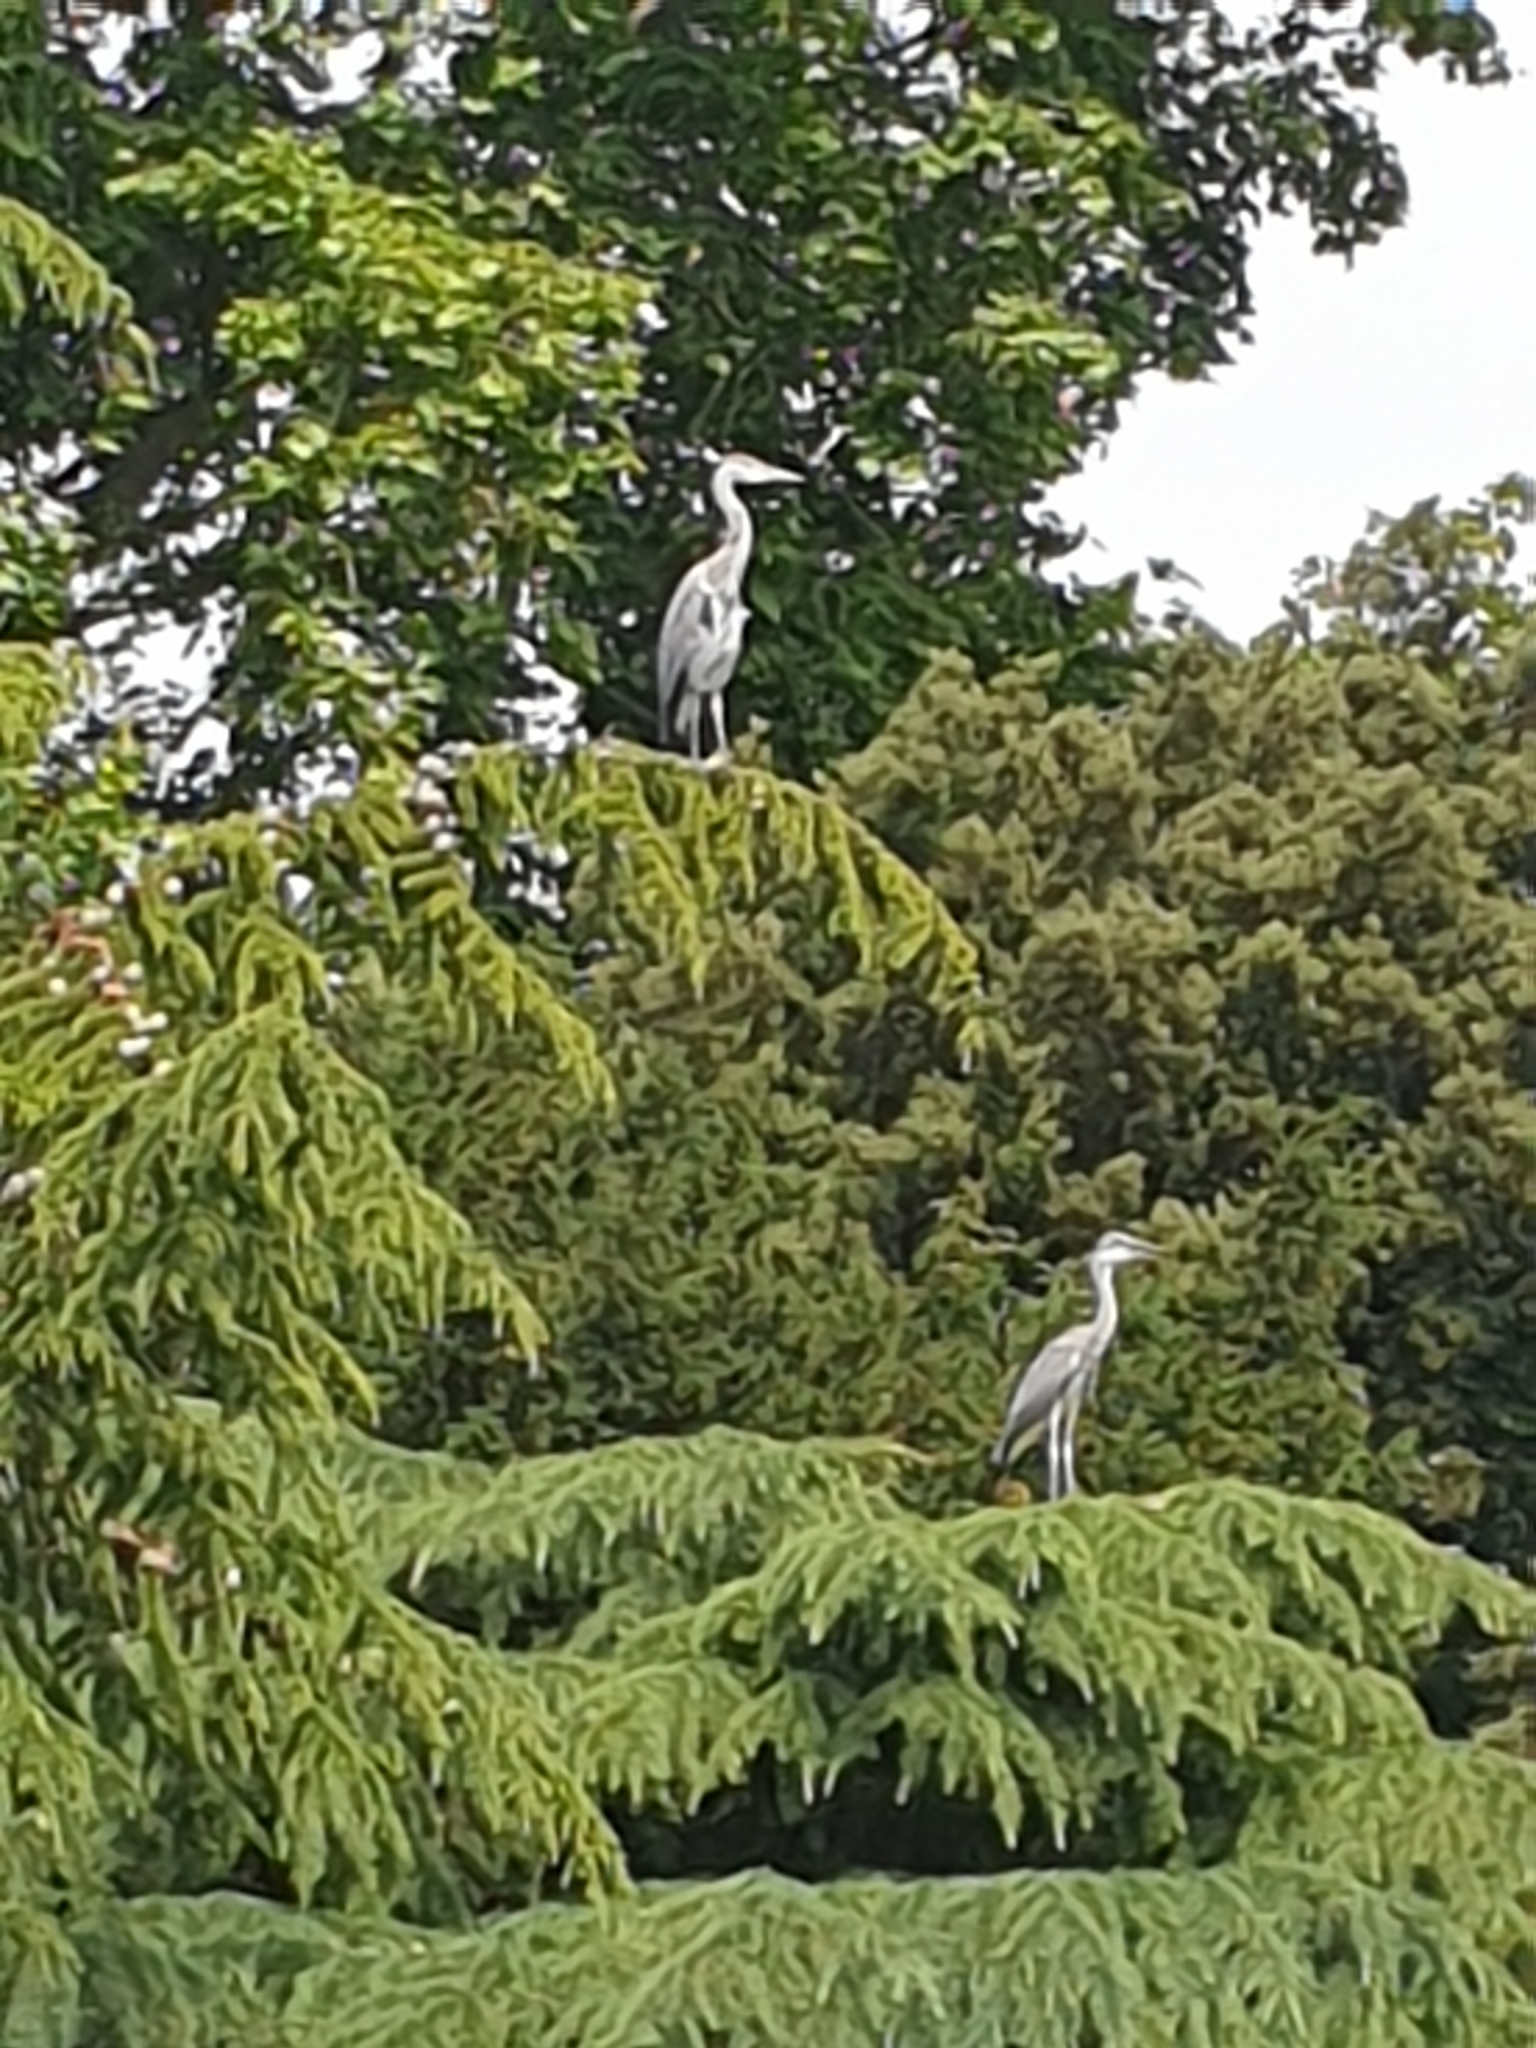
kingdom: Animalia
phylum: Chordata
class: Aves
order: Pelecaniformes
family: Ardeidae
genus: Ardea
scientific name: Ardea cinerea
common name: Grey heron
